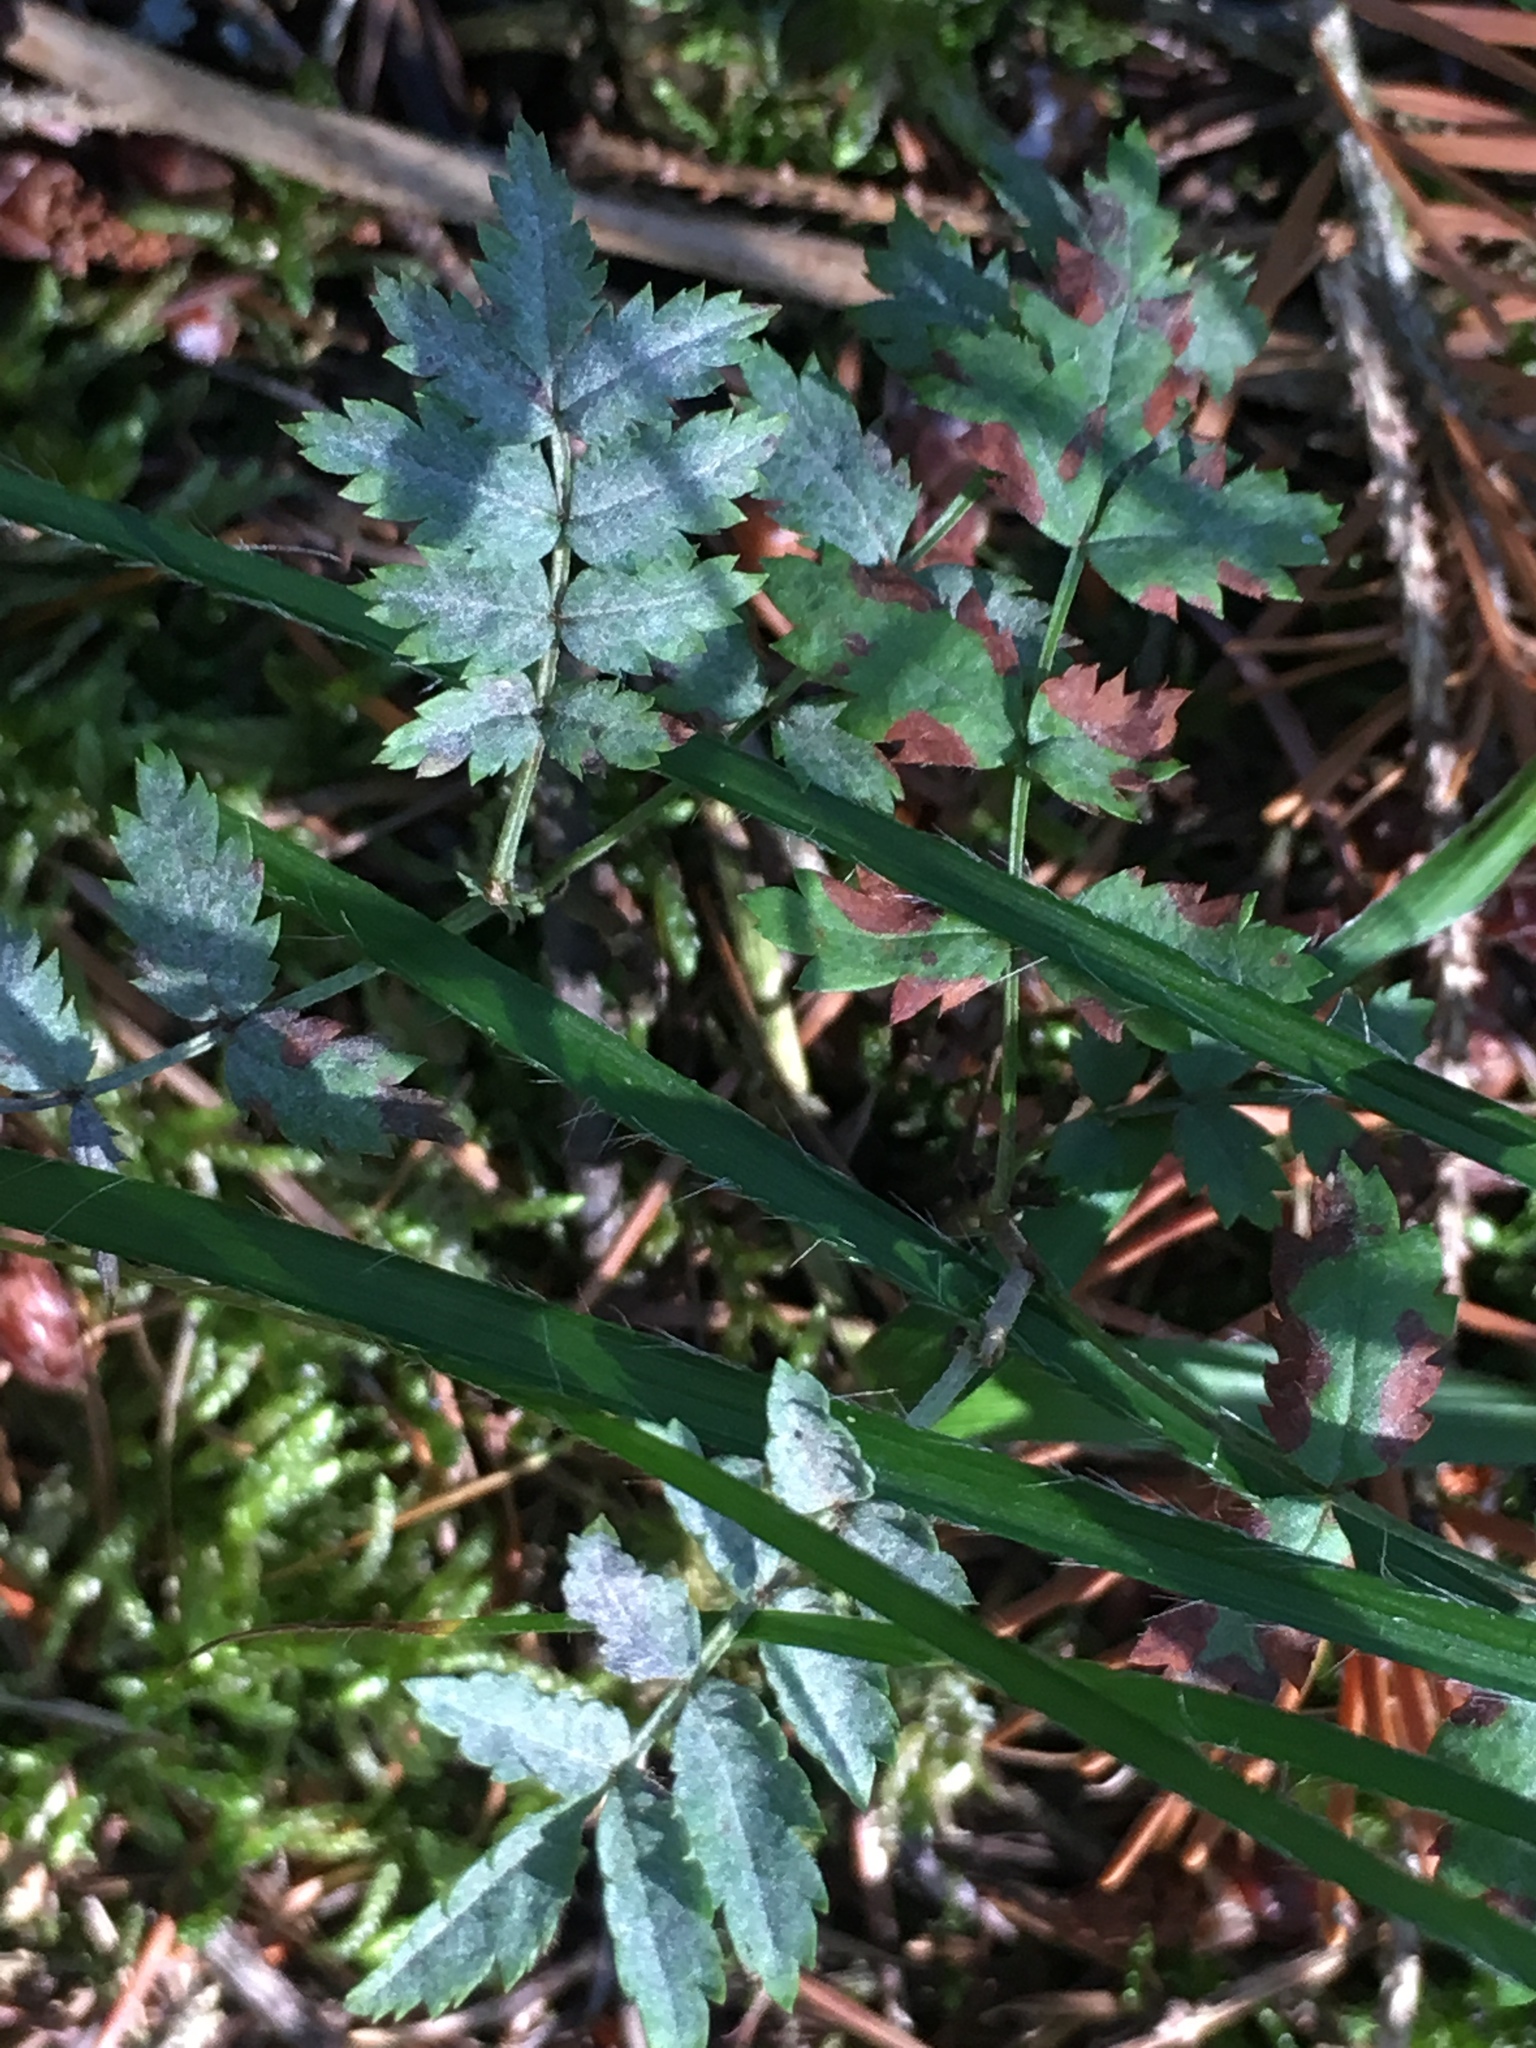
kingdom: Plantae
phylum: Tracheophyta
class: Magnoliopsida
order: Rosales
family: Rosaceae
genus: Sorbus
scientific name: Sorbus aucuparia
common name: Rowan
